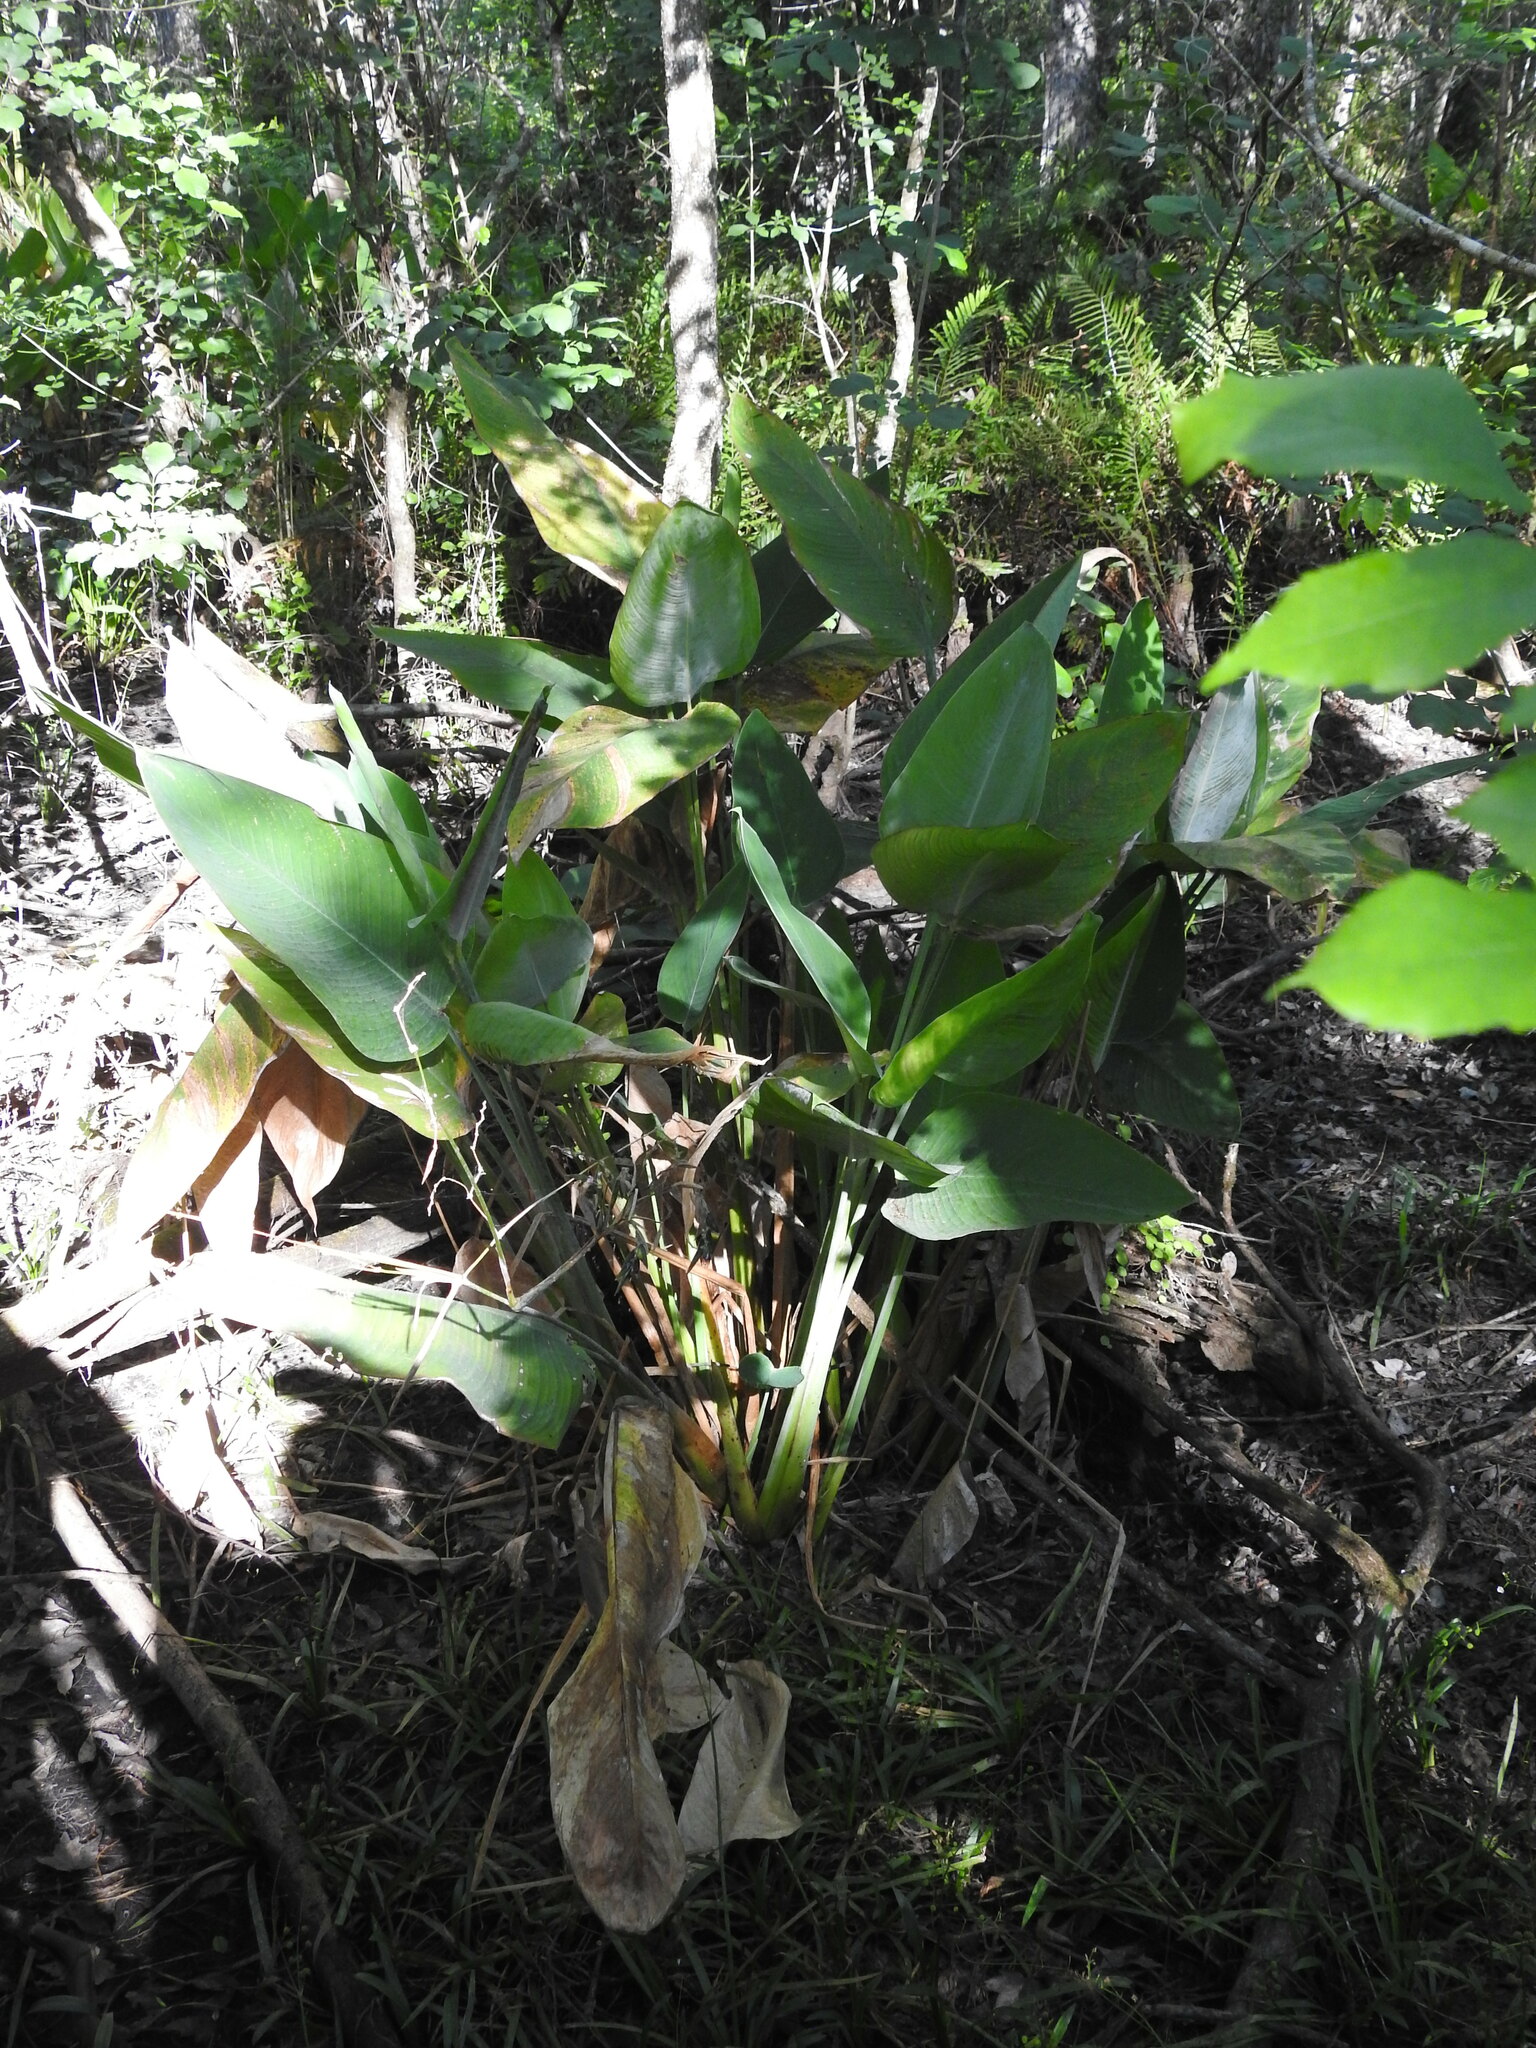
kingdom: Plantae
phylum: Tracheophyta
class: Liliopsida
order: Zingiberales
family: Marantaceae
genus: Thalia
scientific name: Thalia geniculata
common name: Arrowroot
